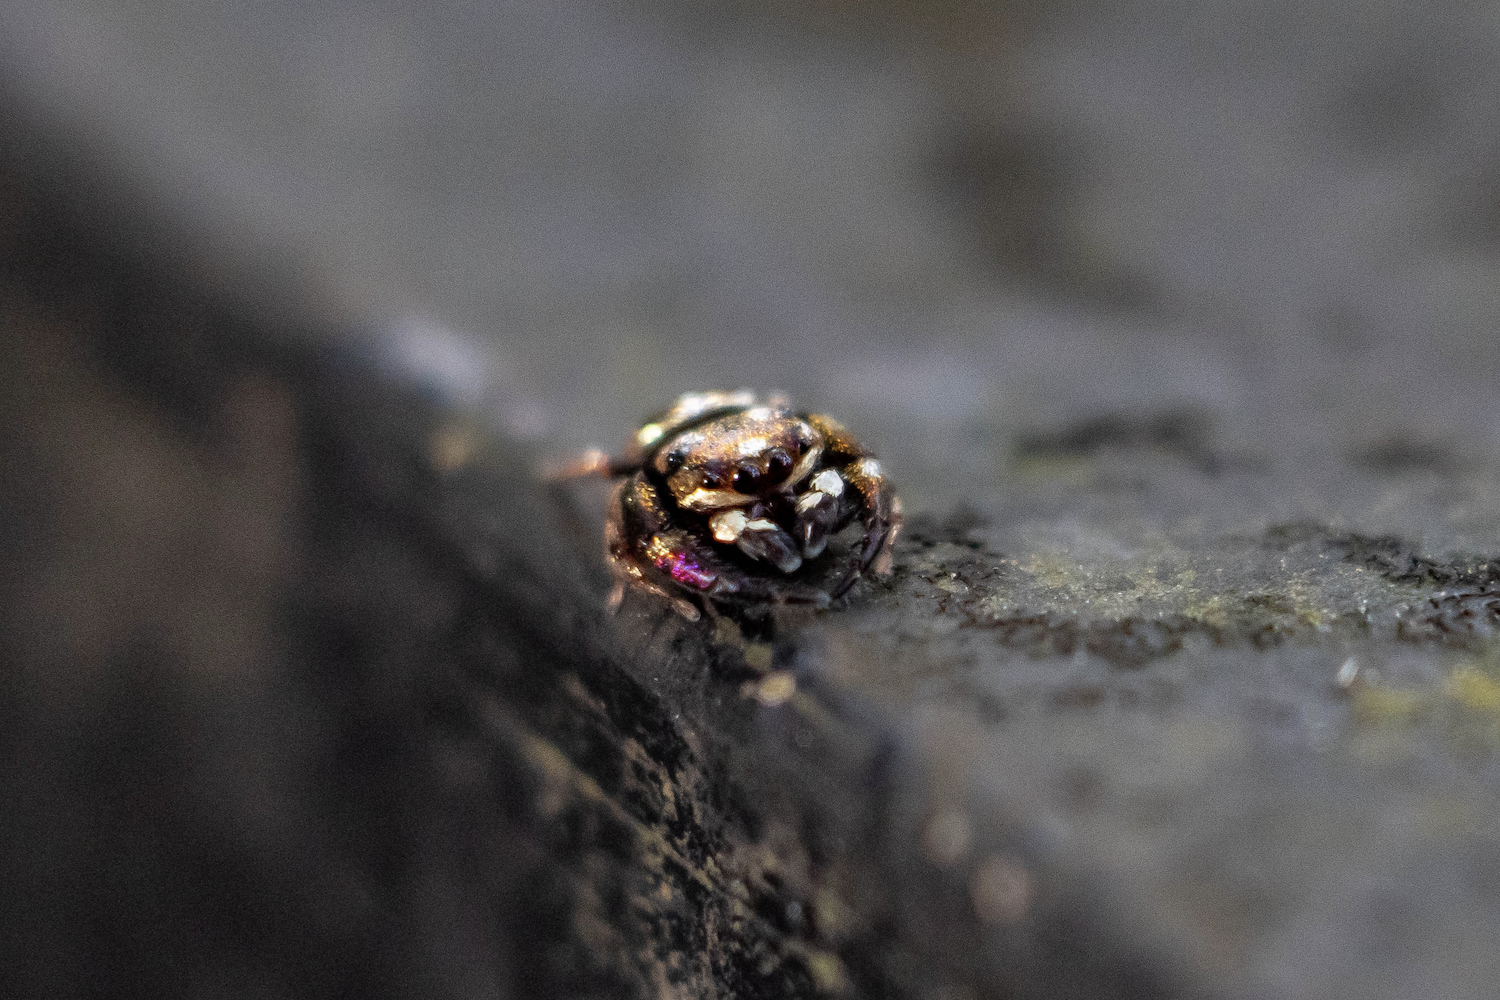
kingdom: Animalia
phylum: Arthropoda
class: Arachnida
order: Araneae
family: Salticidae
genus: Irura
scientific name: Irura bidenticulata
